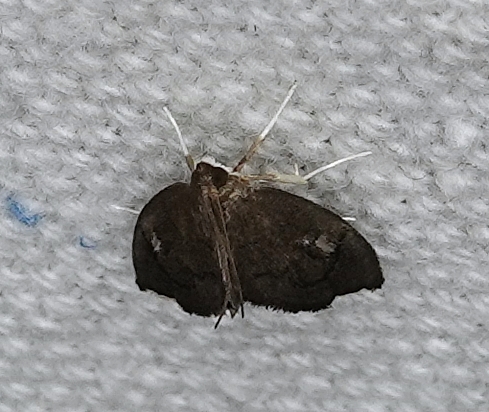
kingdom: Animalia
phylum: Arthropoda
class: Insecta
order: Lepidoptera
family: Crambidae
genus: Perispasta
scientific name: Perispasta caeculalis
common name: Titian peale's moth
